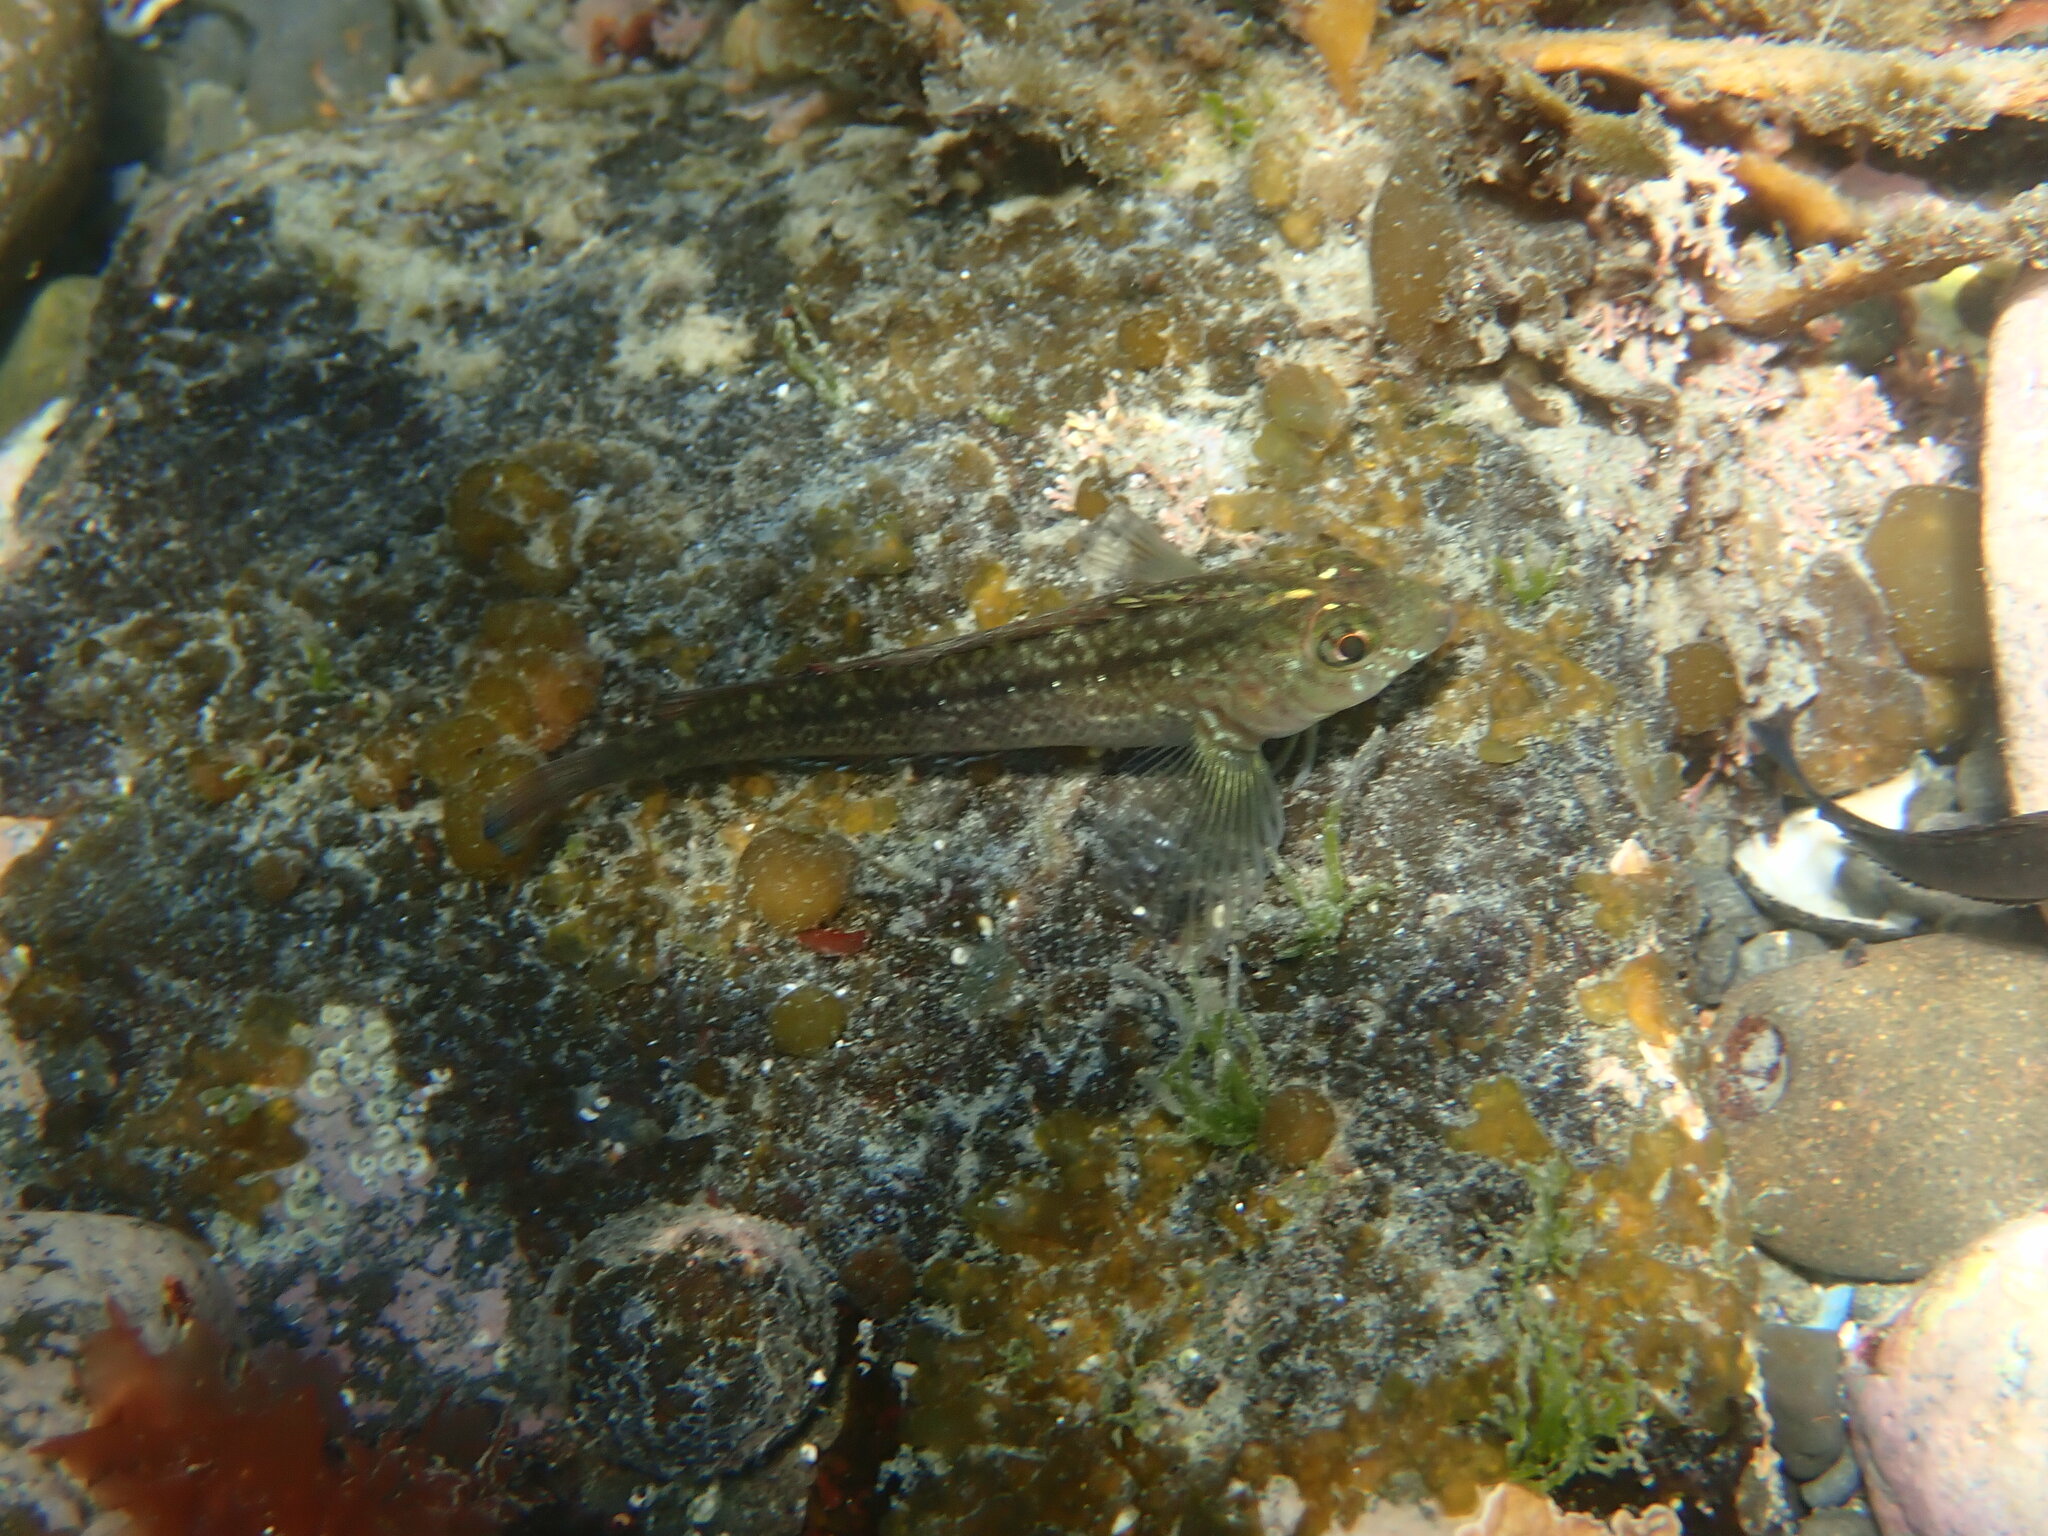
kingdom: Animalia
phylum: Chordata
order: Perciformes
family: Tripterygiidae
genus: Forsterygion
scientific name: Forsterygion lapillum
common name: Common triplefin
